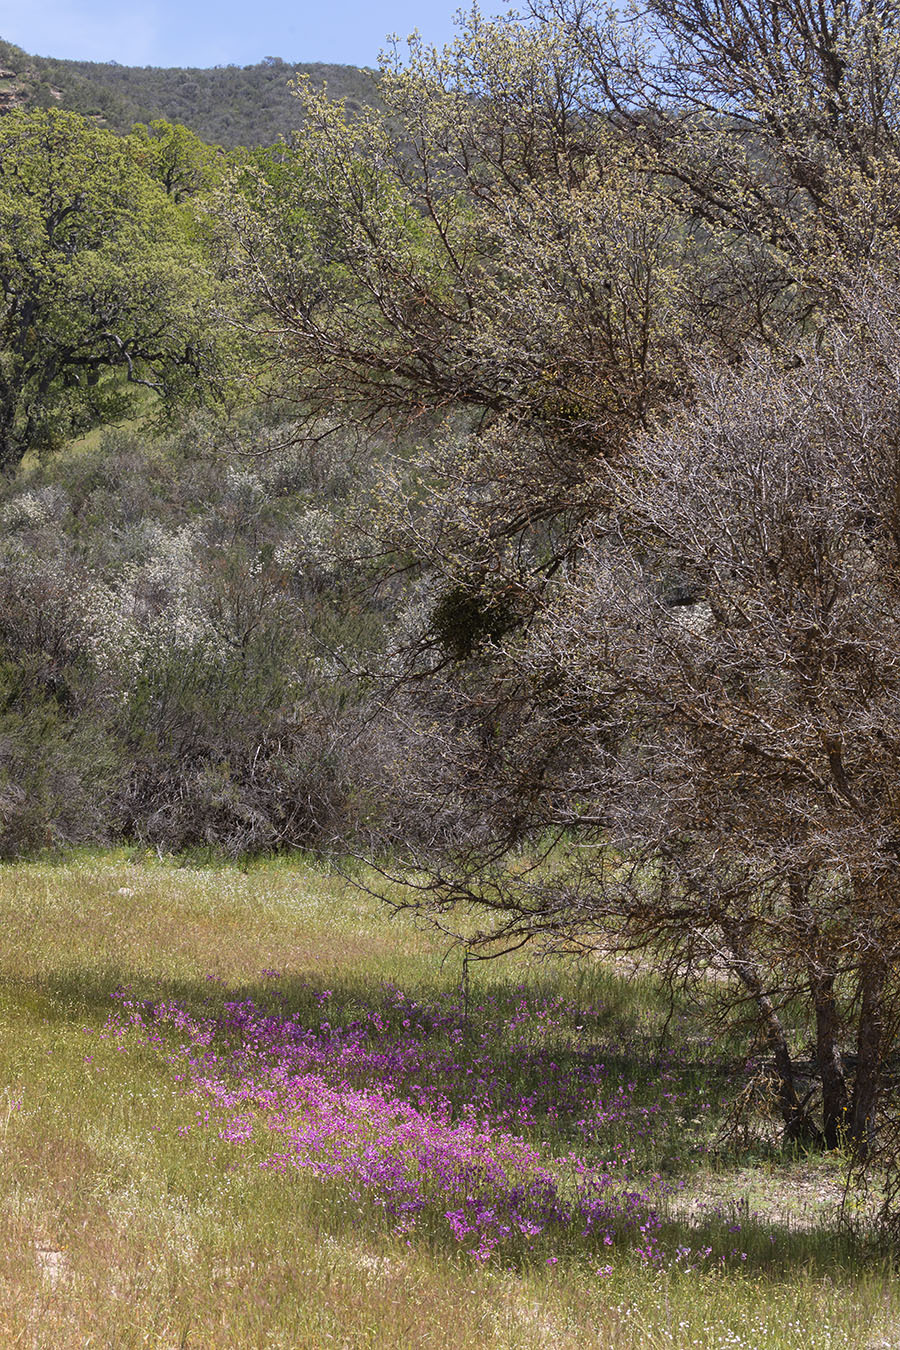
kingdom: Plantae
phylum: Tracheophyta
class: Magnoliopsida
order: Ericales
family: Primulaceae
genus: Dodecatheon
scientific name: Dodecatheon clevelandii
